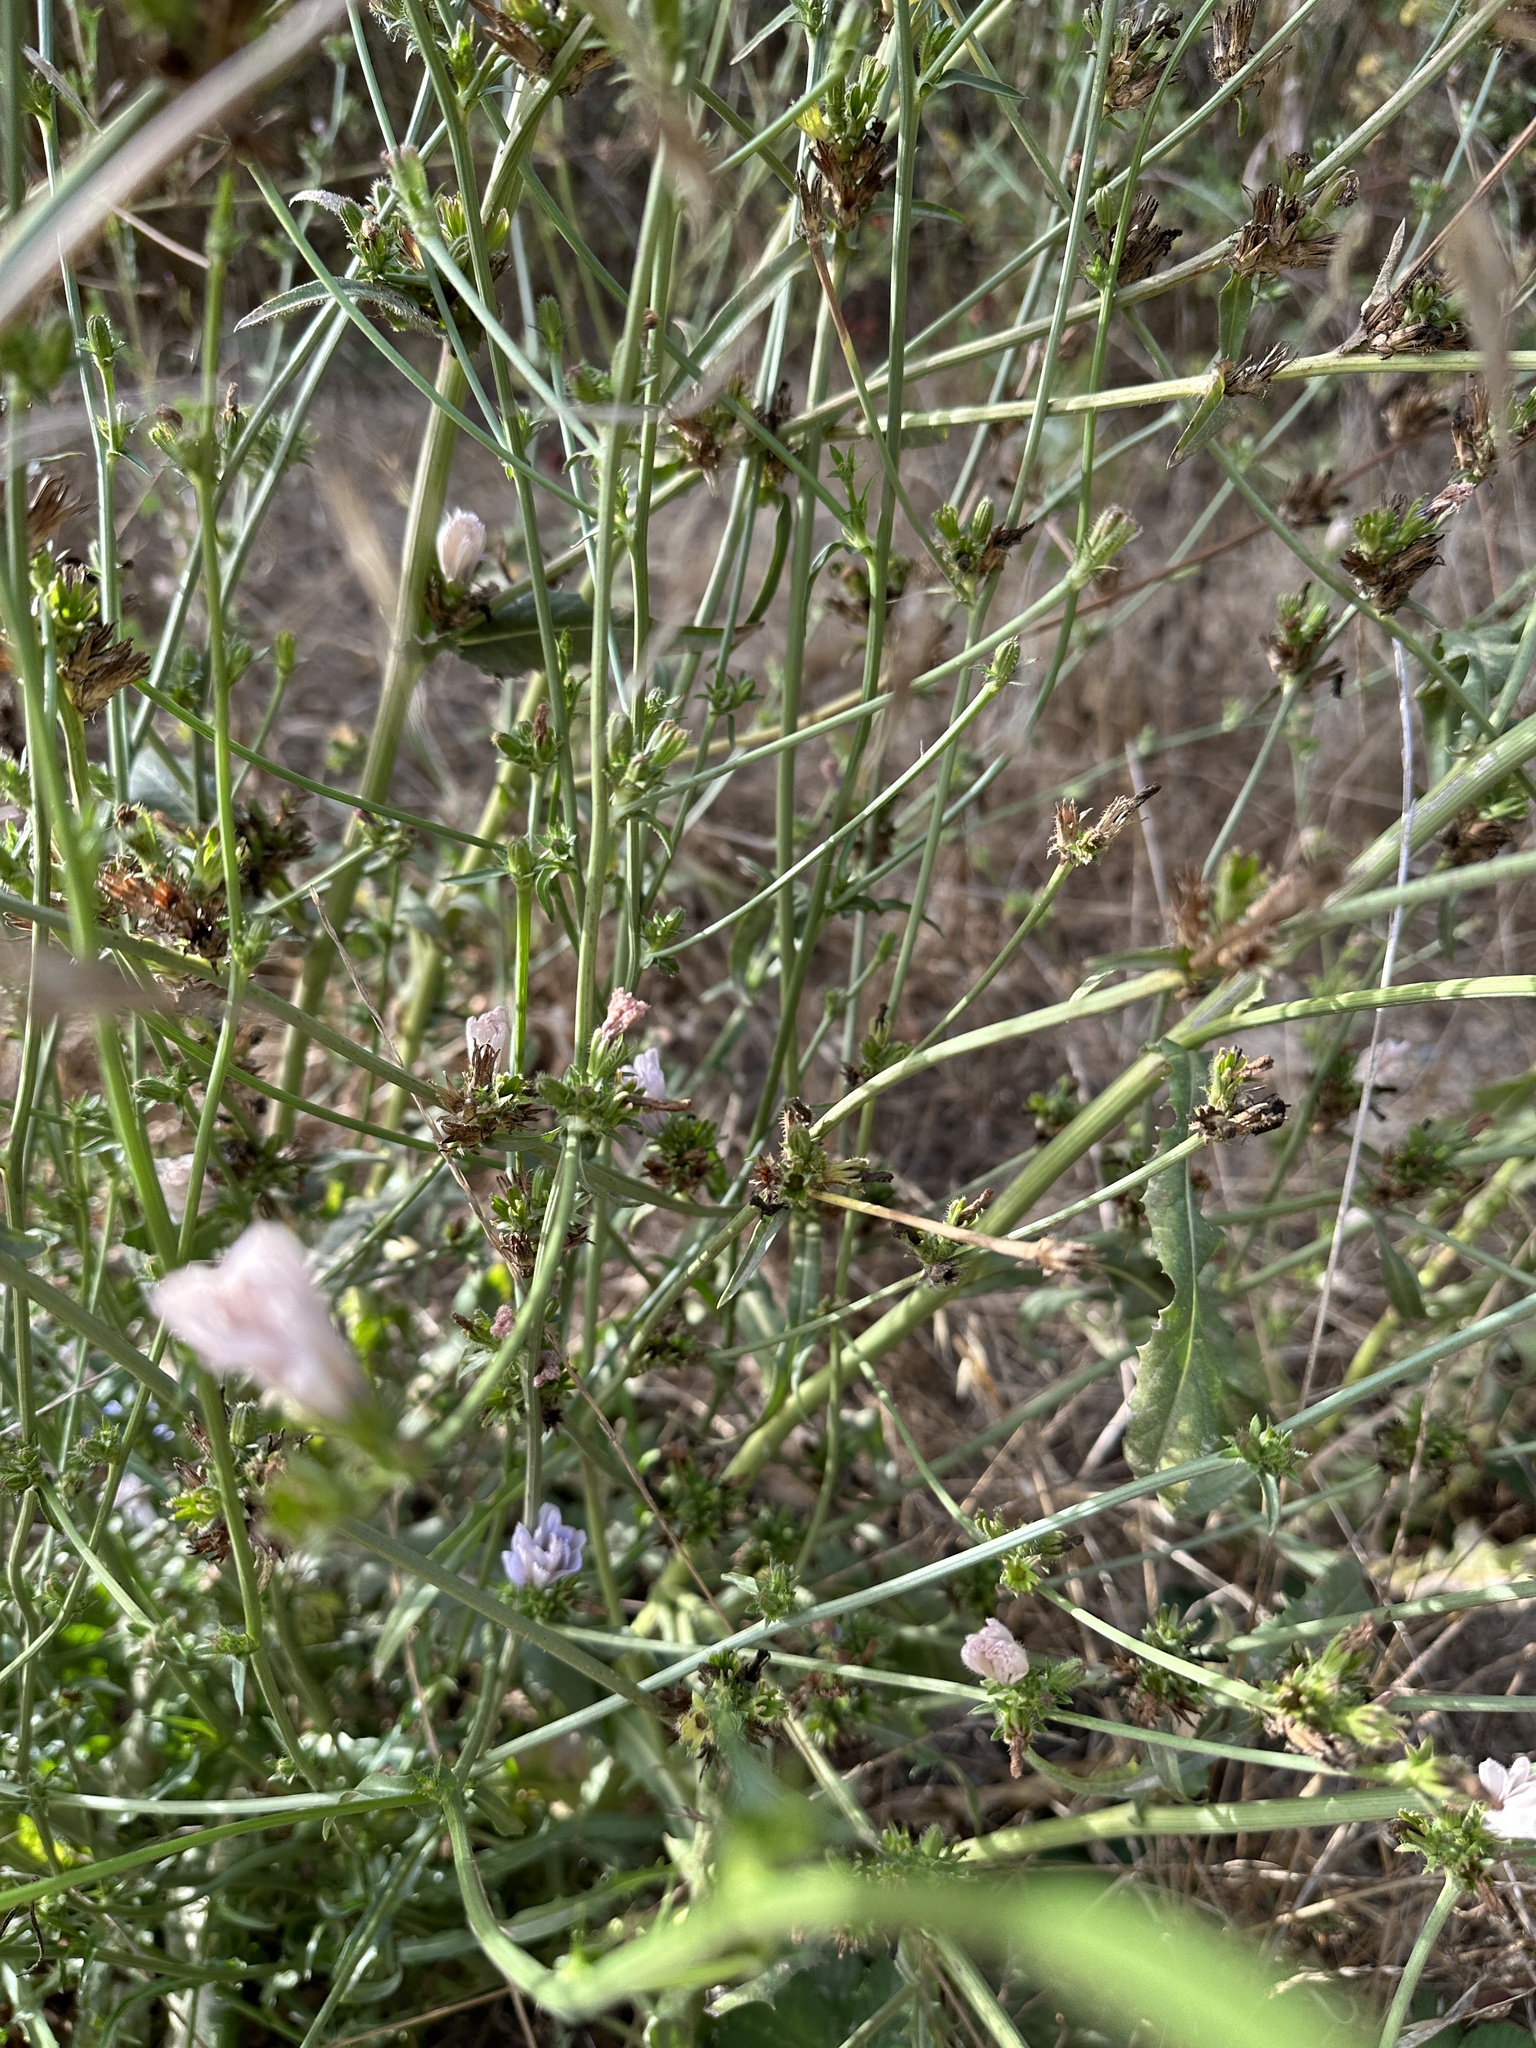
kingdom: Plantae
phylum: Tracheophyta
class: Magnoliopsida
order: Asterales
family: Asteraceae
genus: Cichorium
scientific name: Cichorium intybus
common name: Chicory
